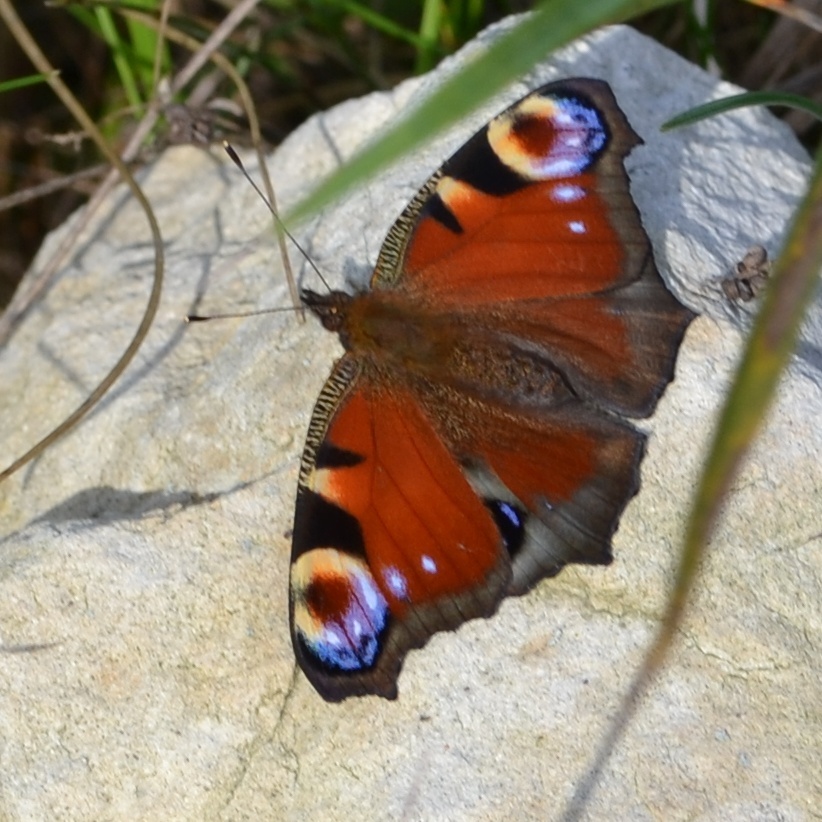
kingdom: Animalia
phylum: Arthropoda
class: Insecta
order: Lepidoptera
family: Nymphalidae
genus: Aglais
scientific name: Aglais io
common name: Peacock
